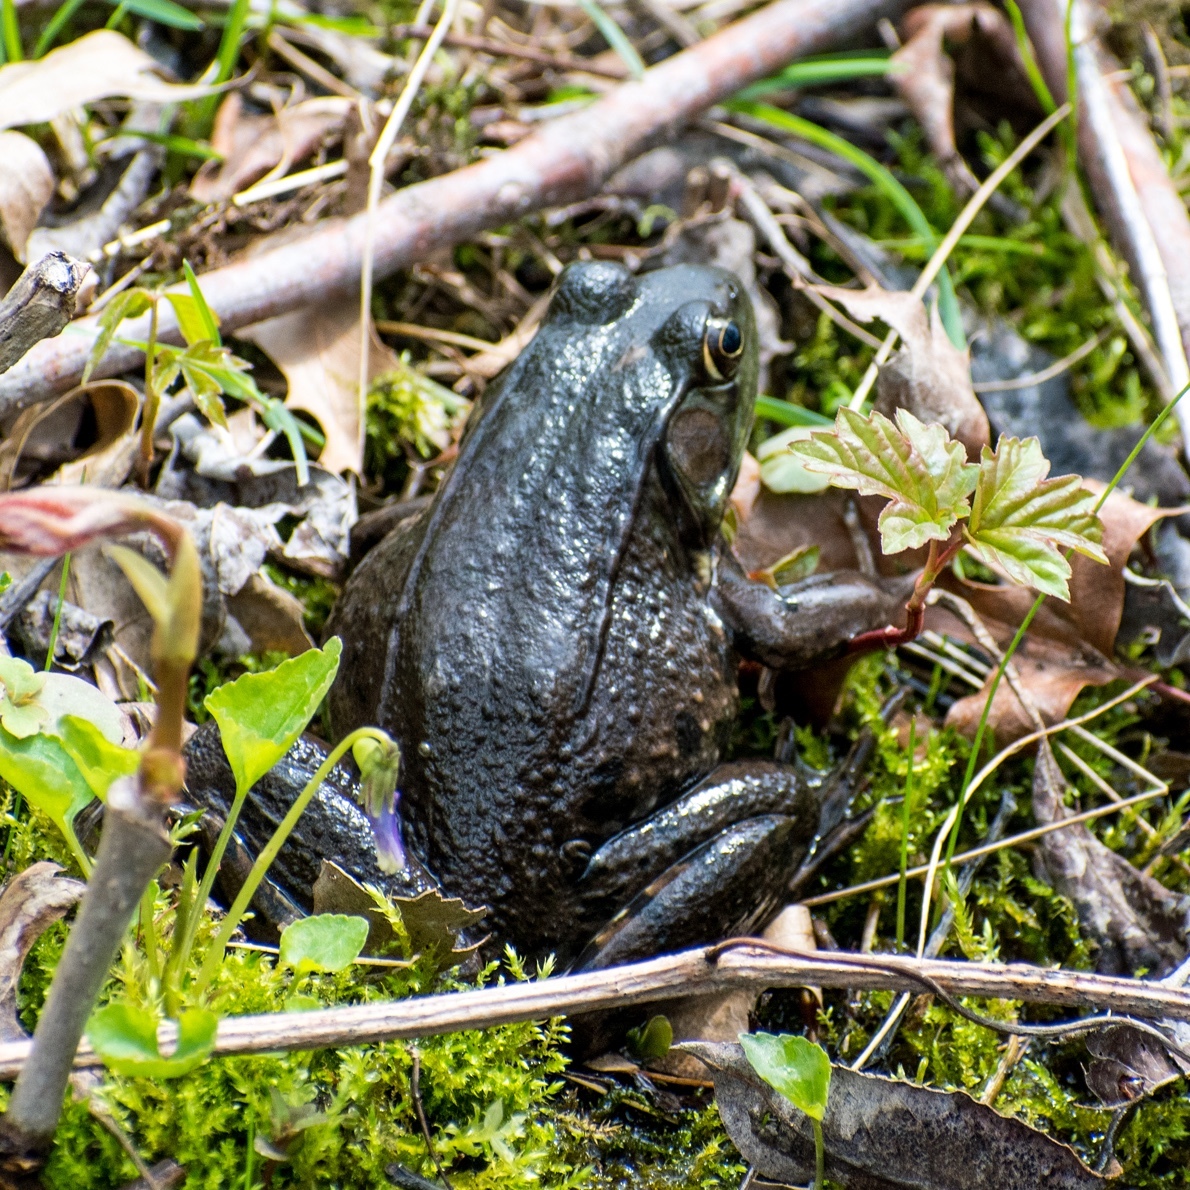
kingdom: Animalia
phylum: Chordata
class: Amphibia
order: Anura
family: Ranidae
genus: Lithobates
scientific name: Lithobates clamitans
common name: Green frog
